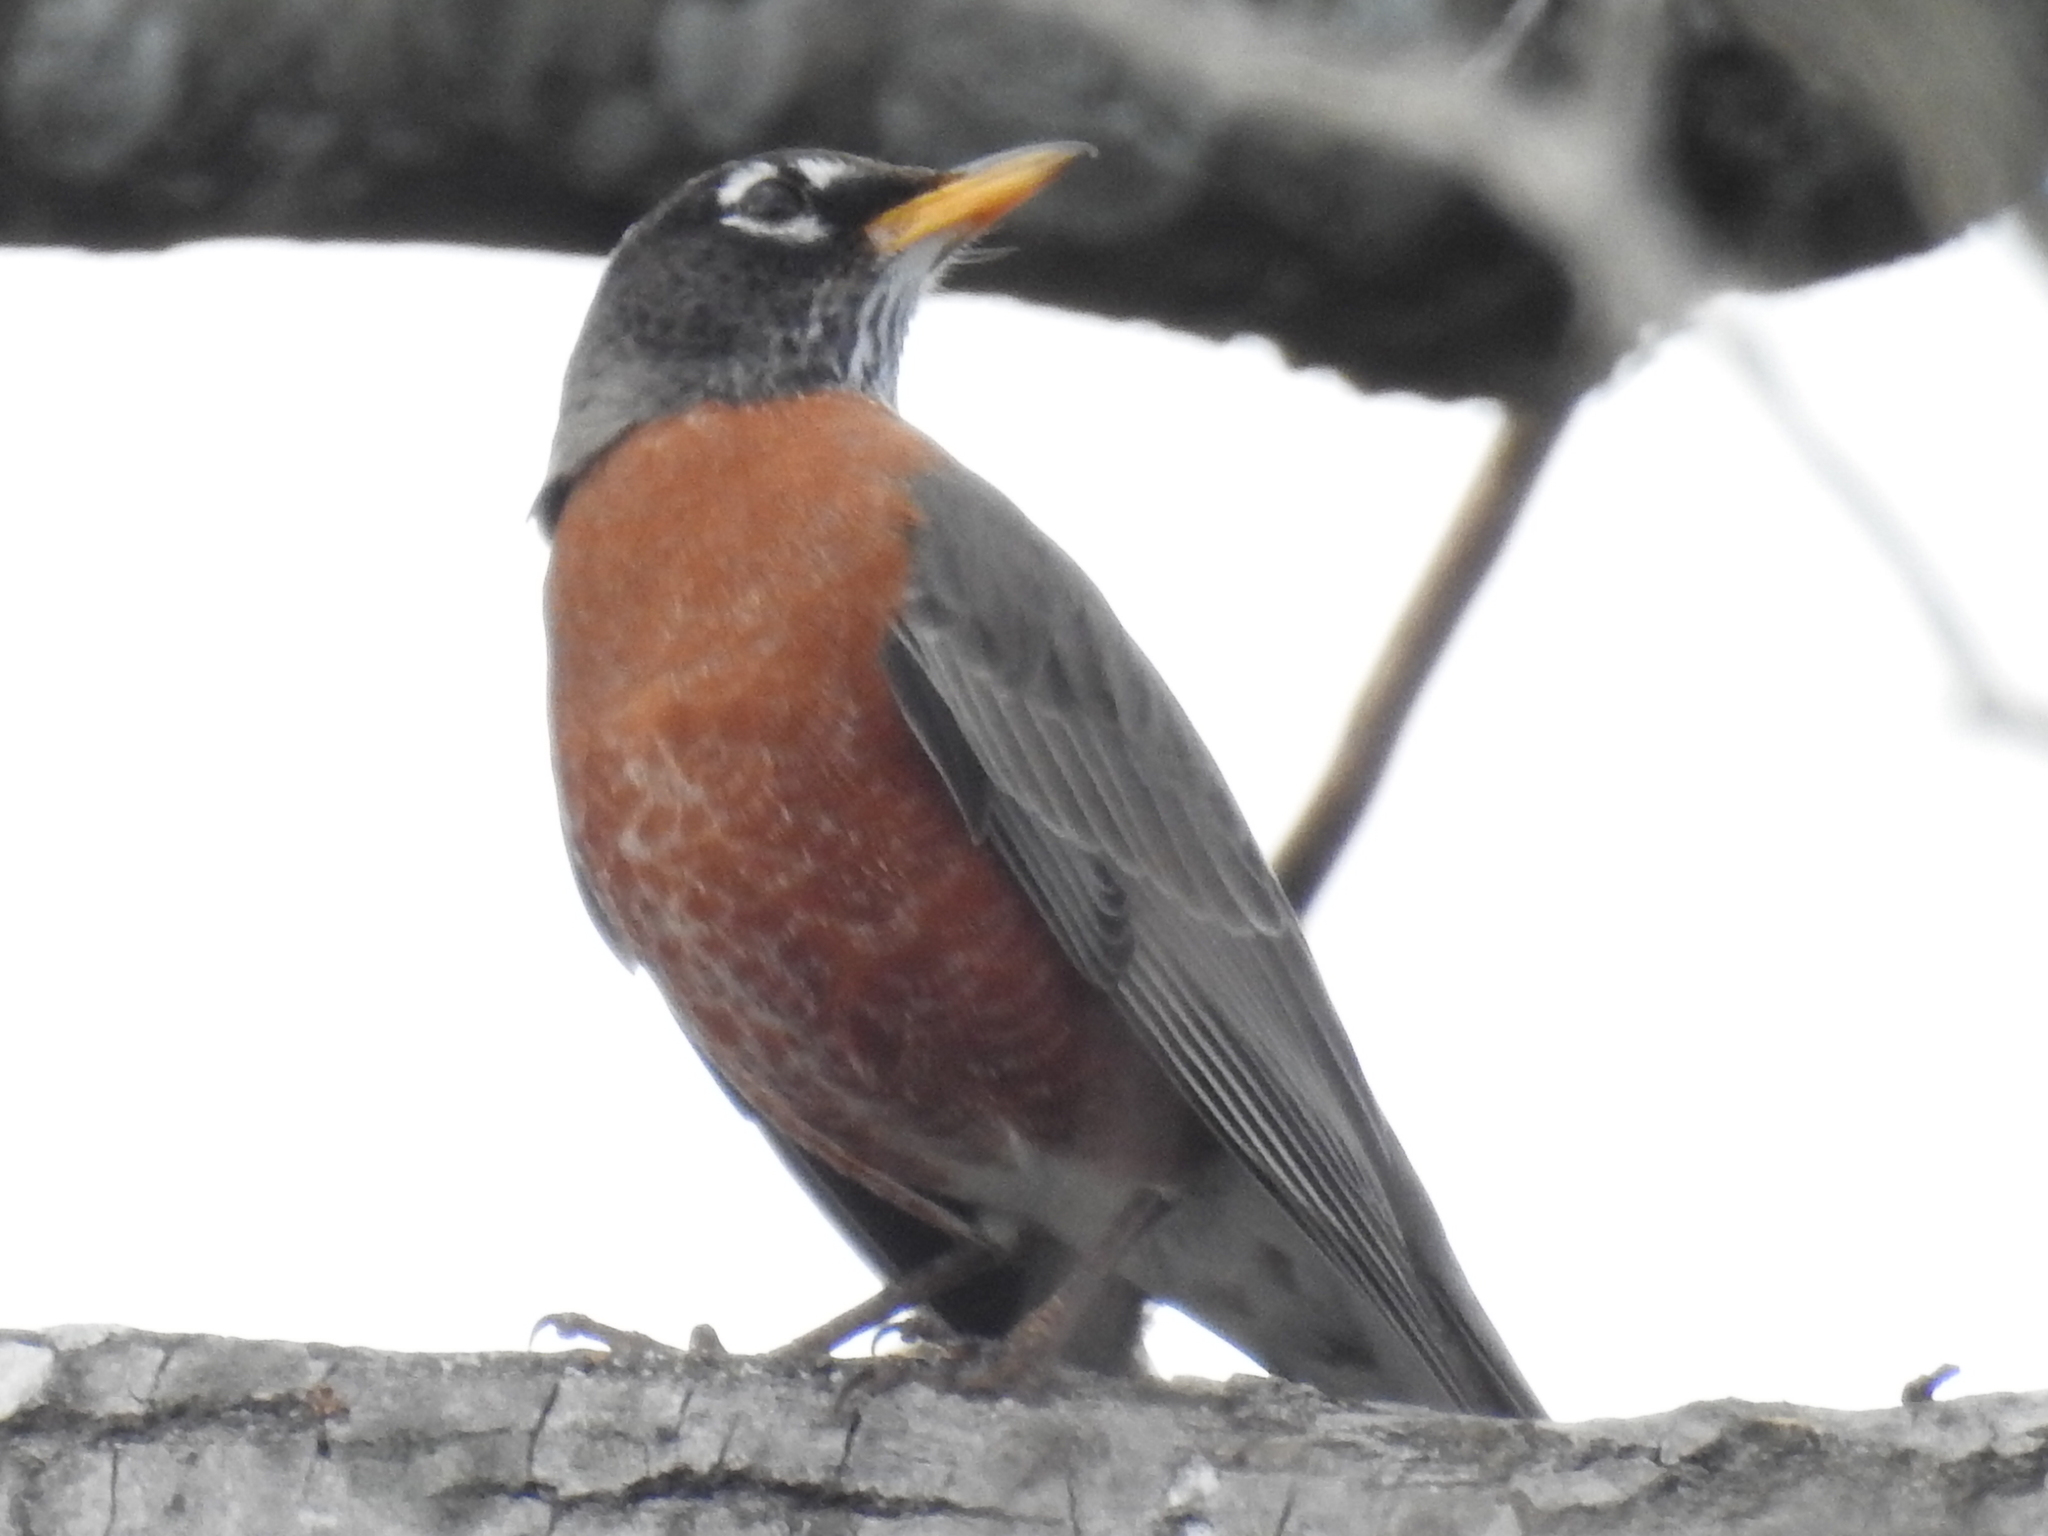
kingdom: Animalia
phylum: Chordata
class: Aves
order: Passeriformes
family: Turdidae
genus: Turdus
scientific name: Turdus migratorius
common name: American robin
